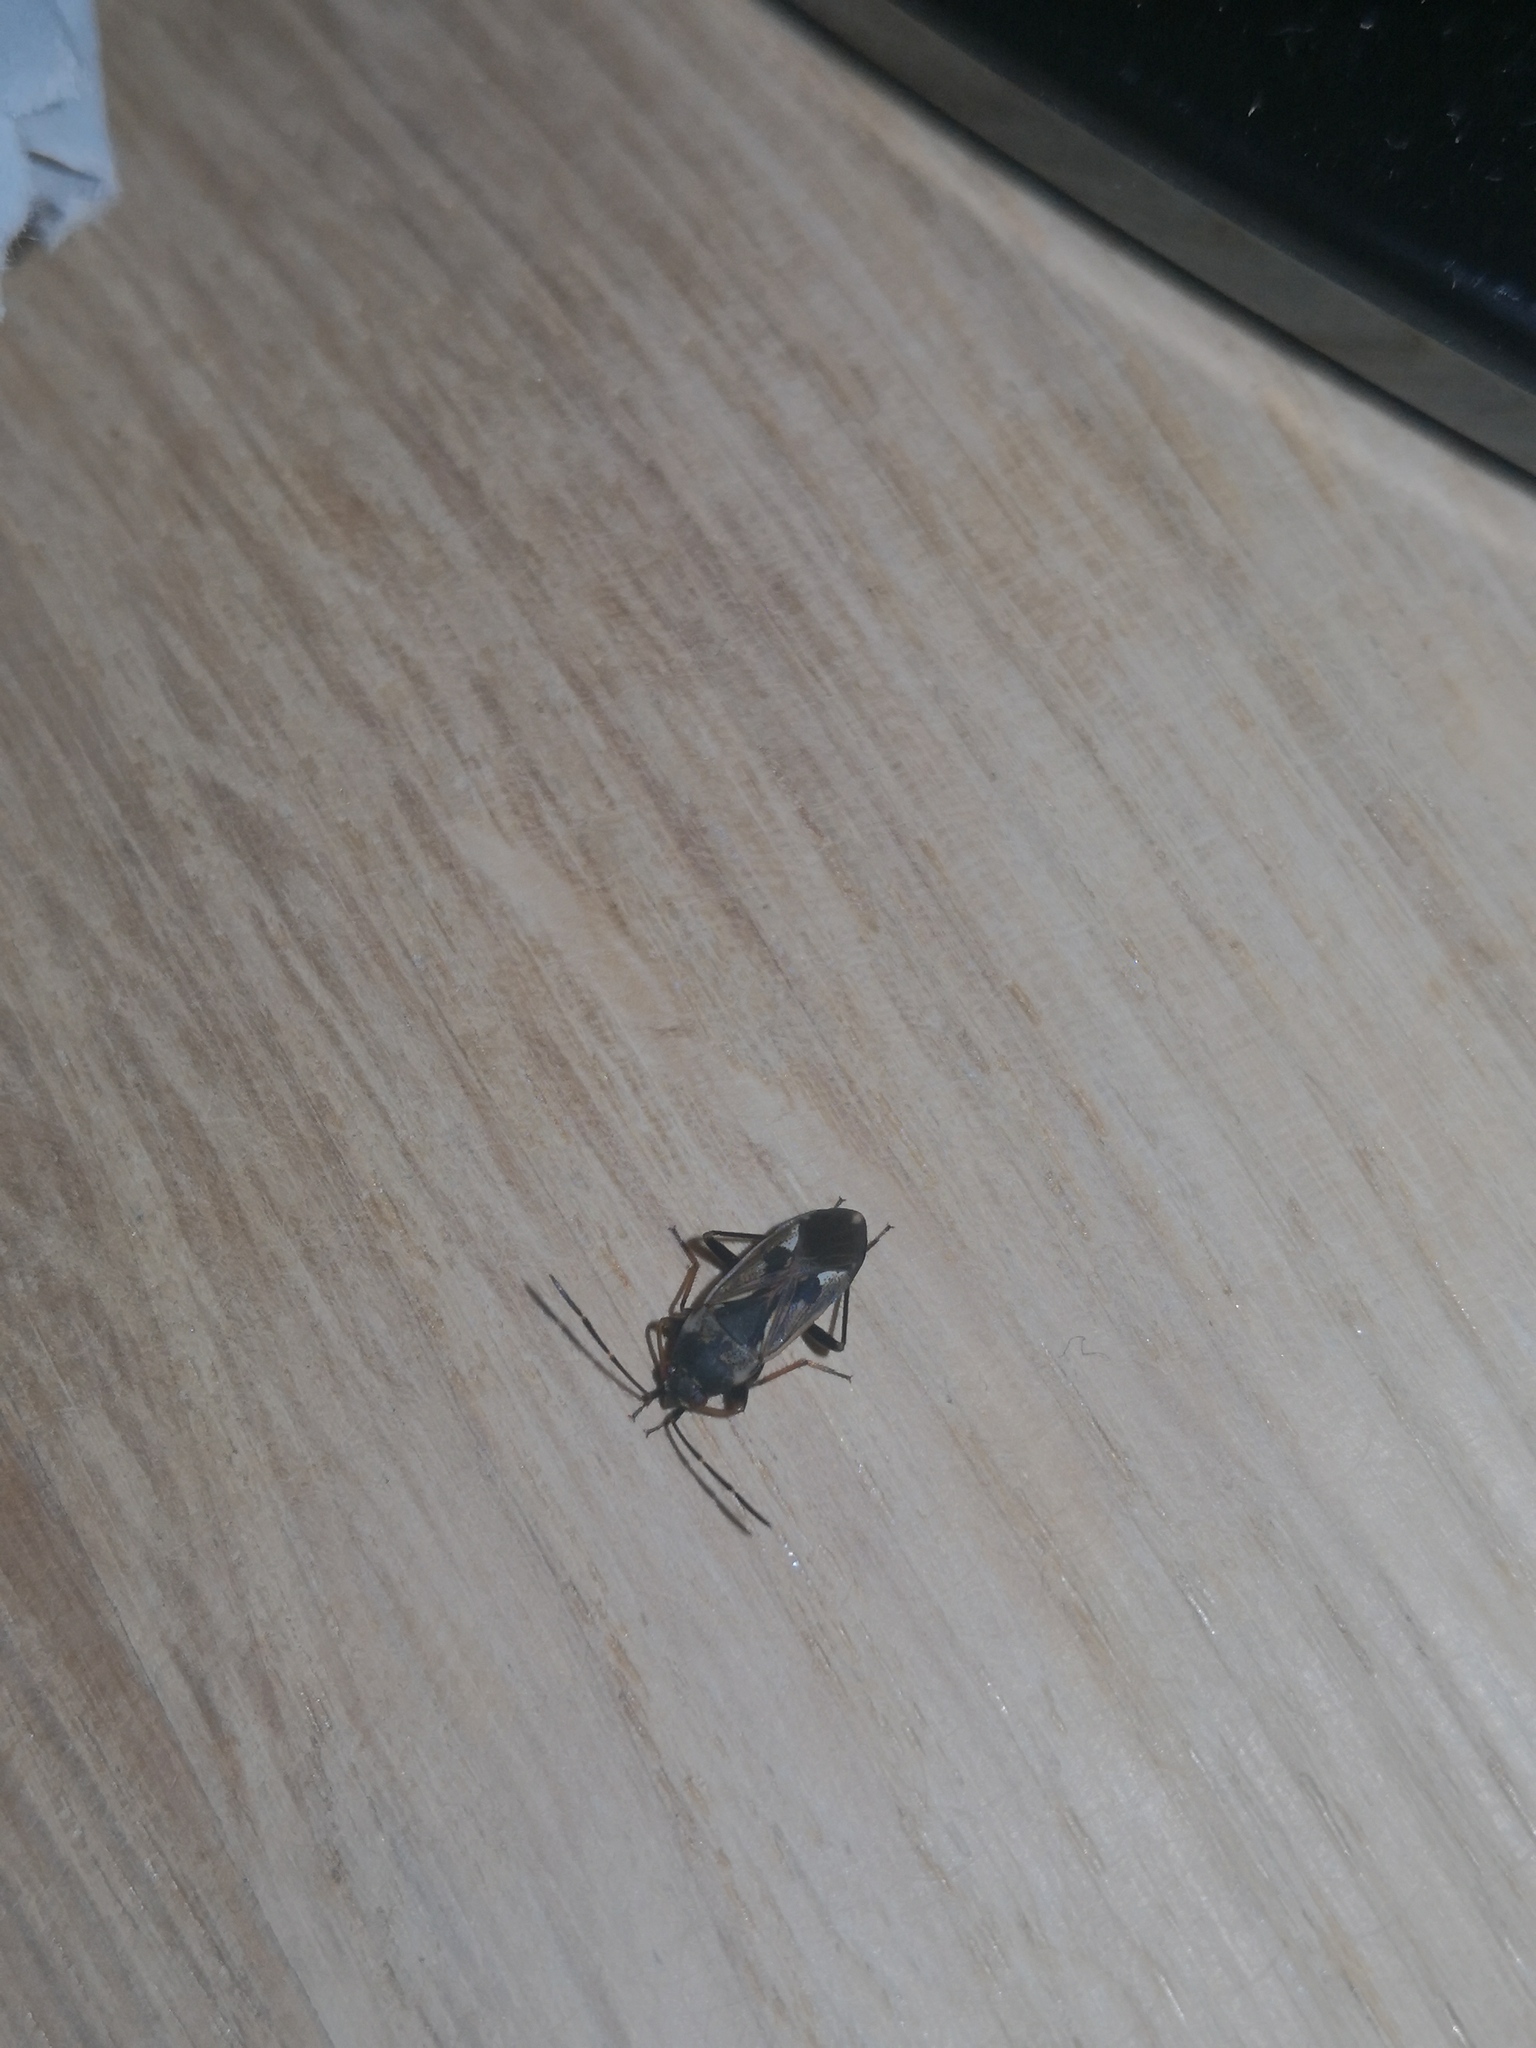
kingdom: Animalia
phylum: Arthropoda
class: Insecta
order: Hemiptera
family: Rhyparochromidae
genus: Rhyparochromus
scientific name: Rhyparochromus vulgaris
